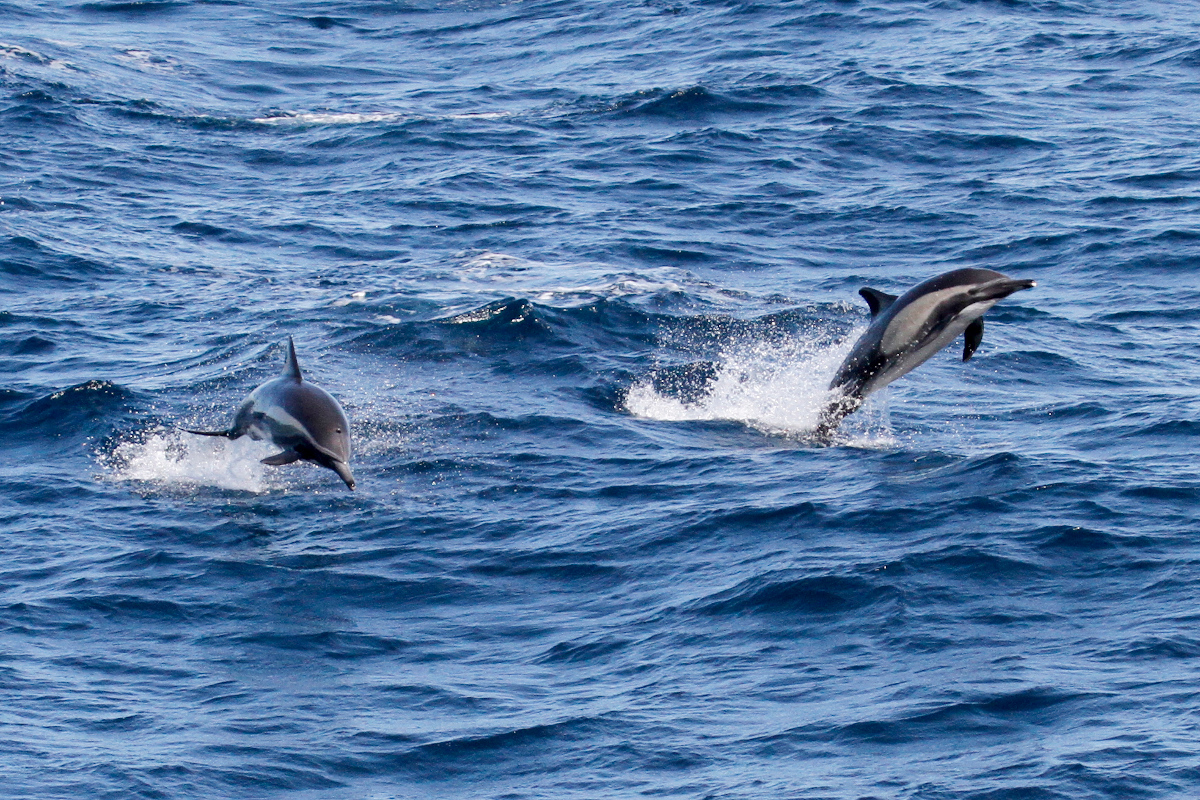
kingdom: Animalia
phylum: Chordata
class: Mammalia
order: Cetacea
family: Delphinidae
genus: Delphinus
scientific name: Delphinus delphis
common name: Common dolphin
